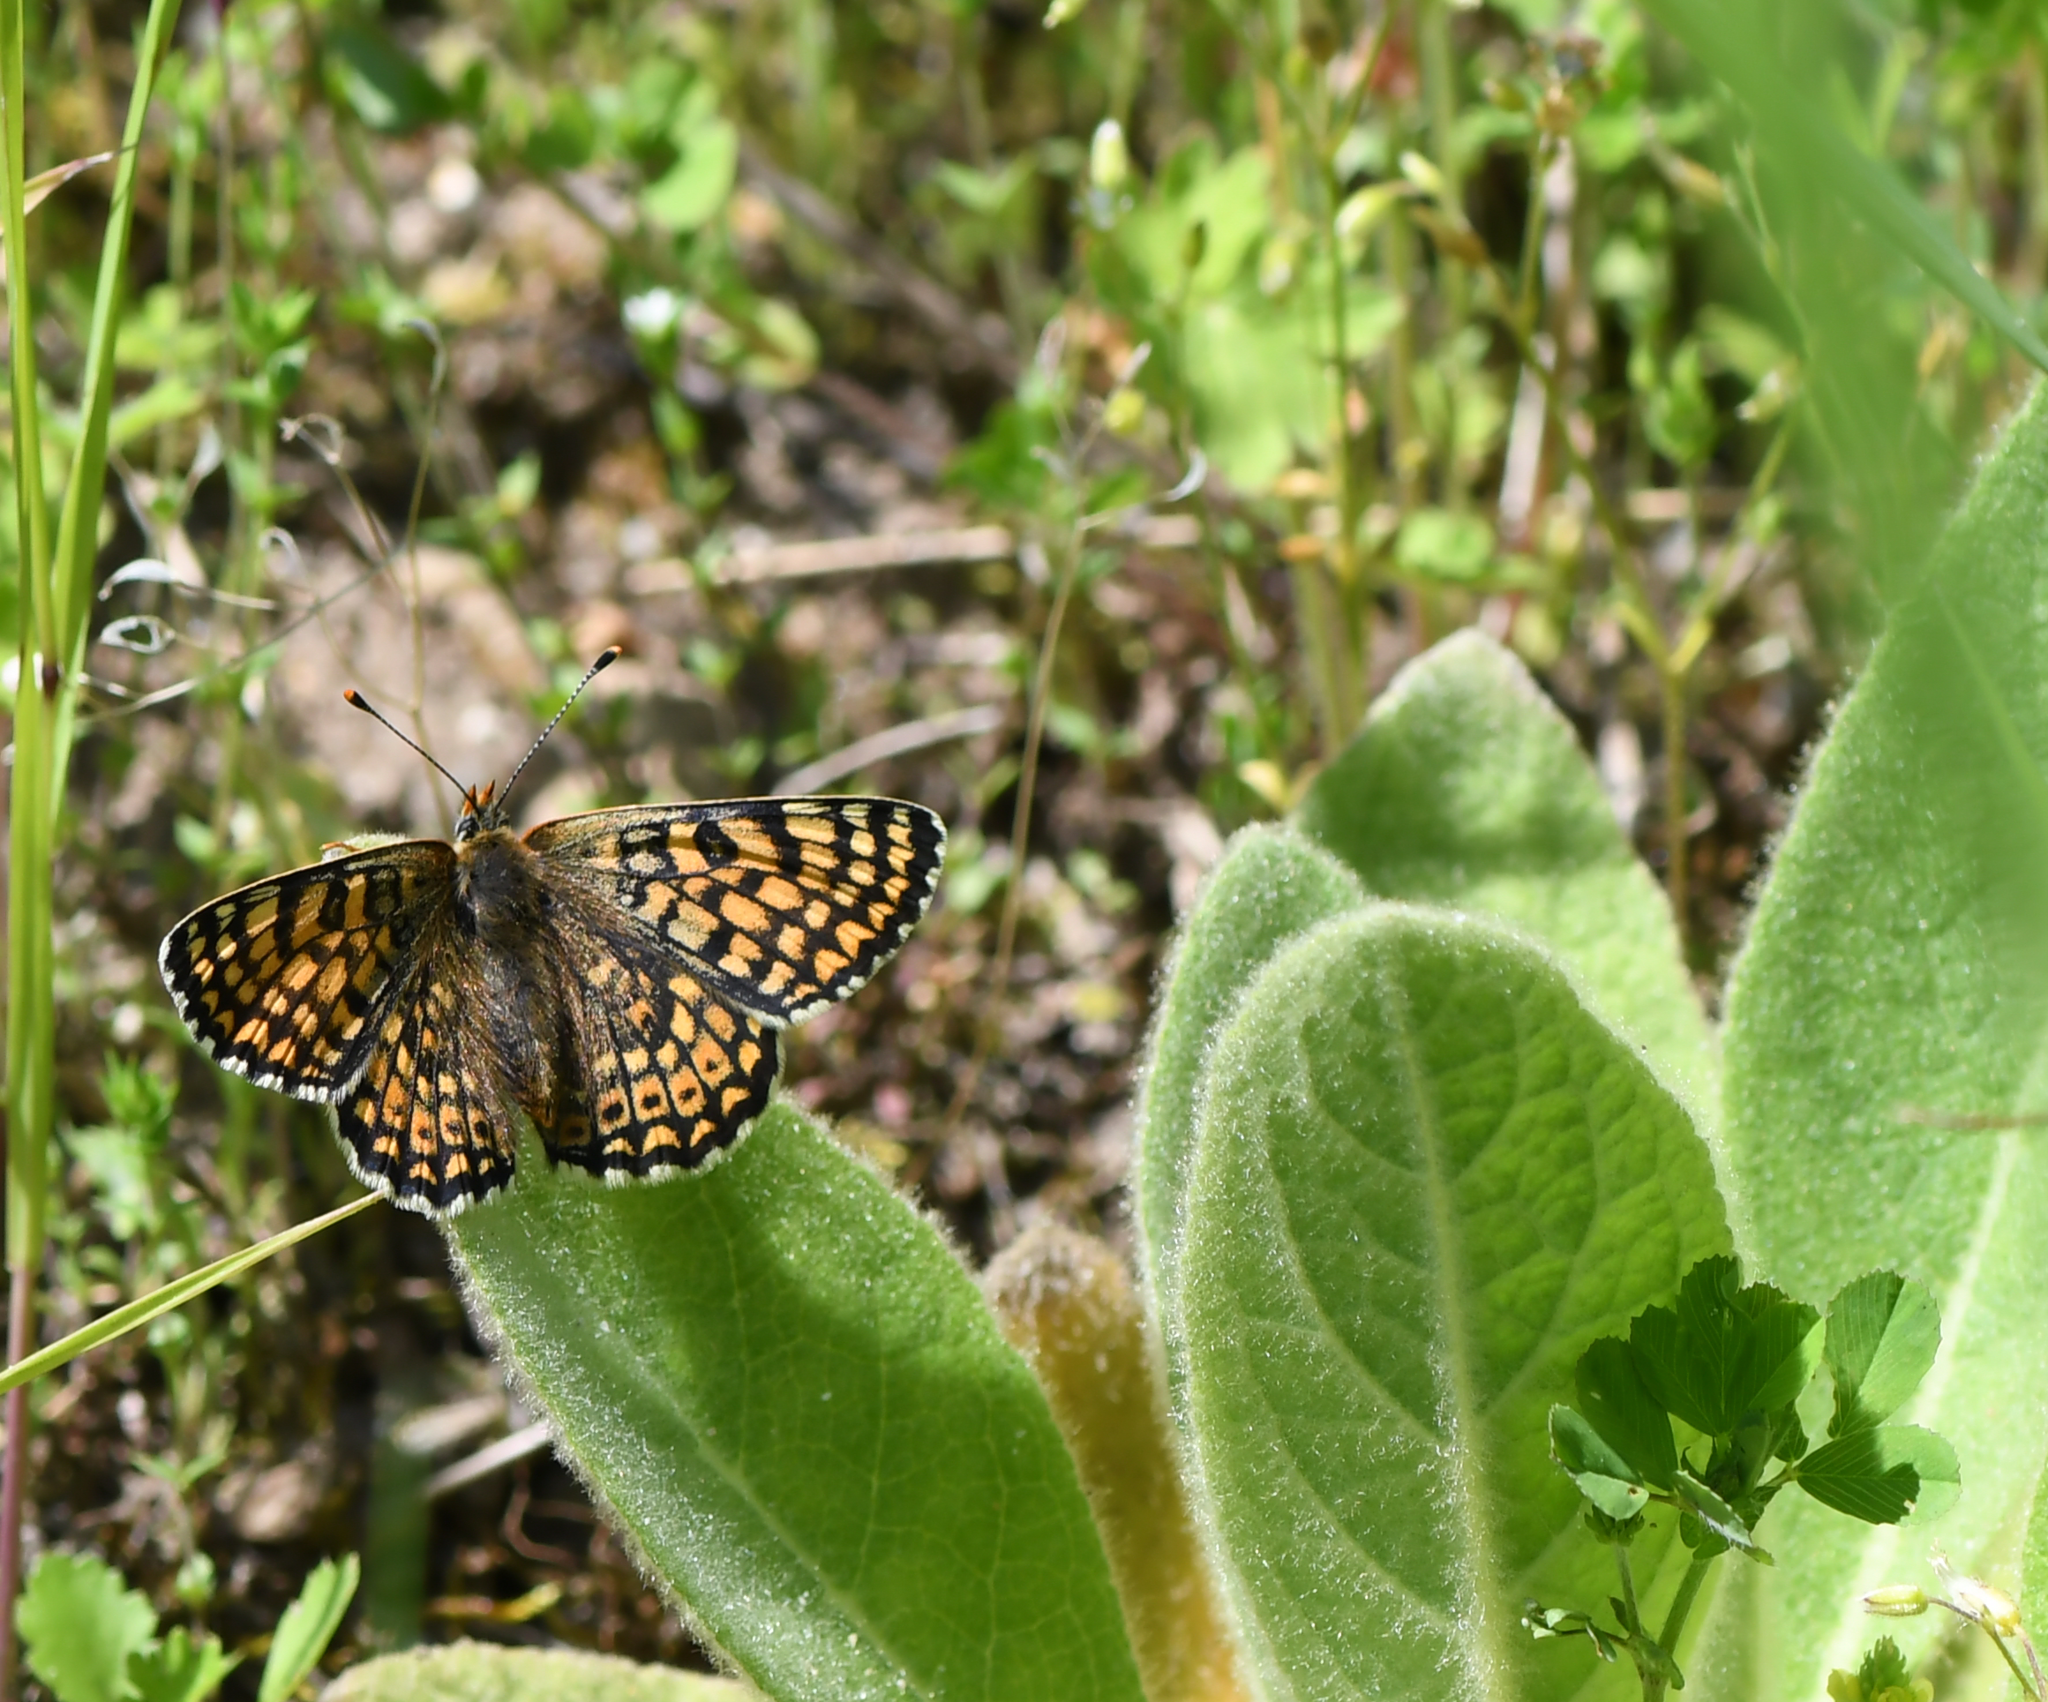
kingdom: Animalia
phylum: Arthropoda
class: Insecta
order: Lepidoptera
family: Nymphalidae
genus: Melitaea
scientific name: Melitaea cinxia
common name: Glanville fritillary
